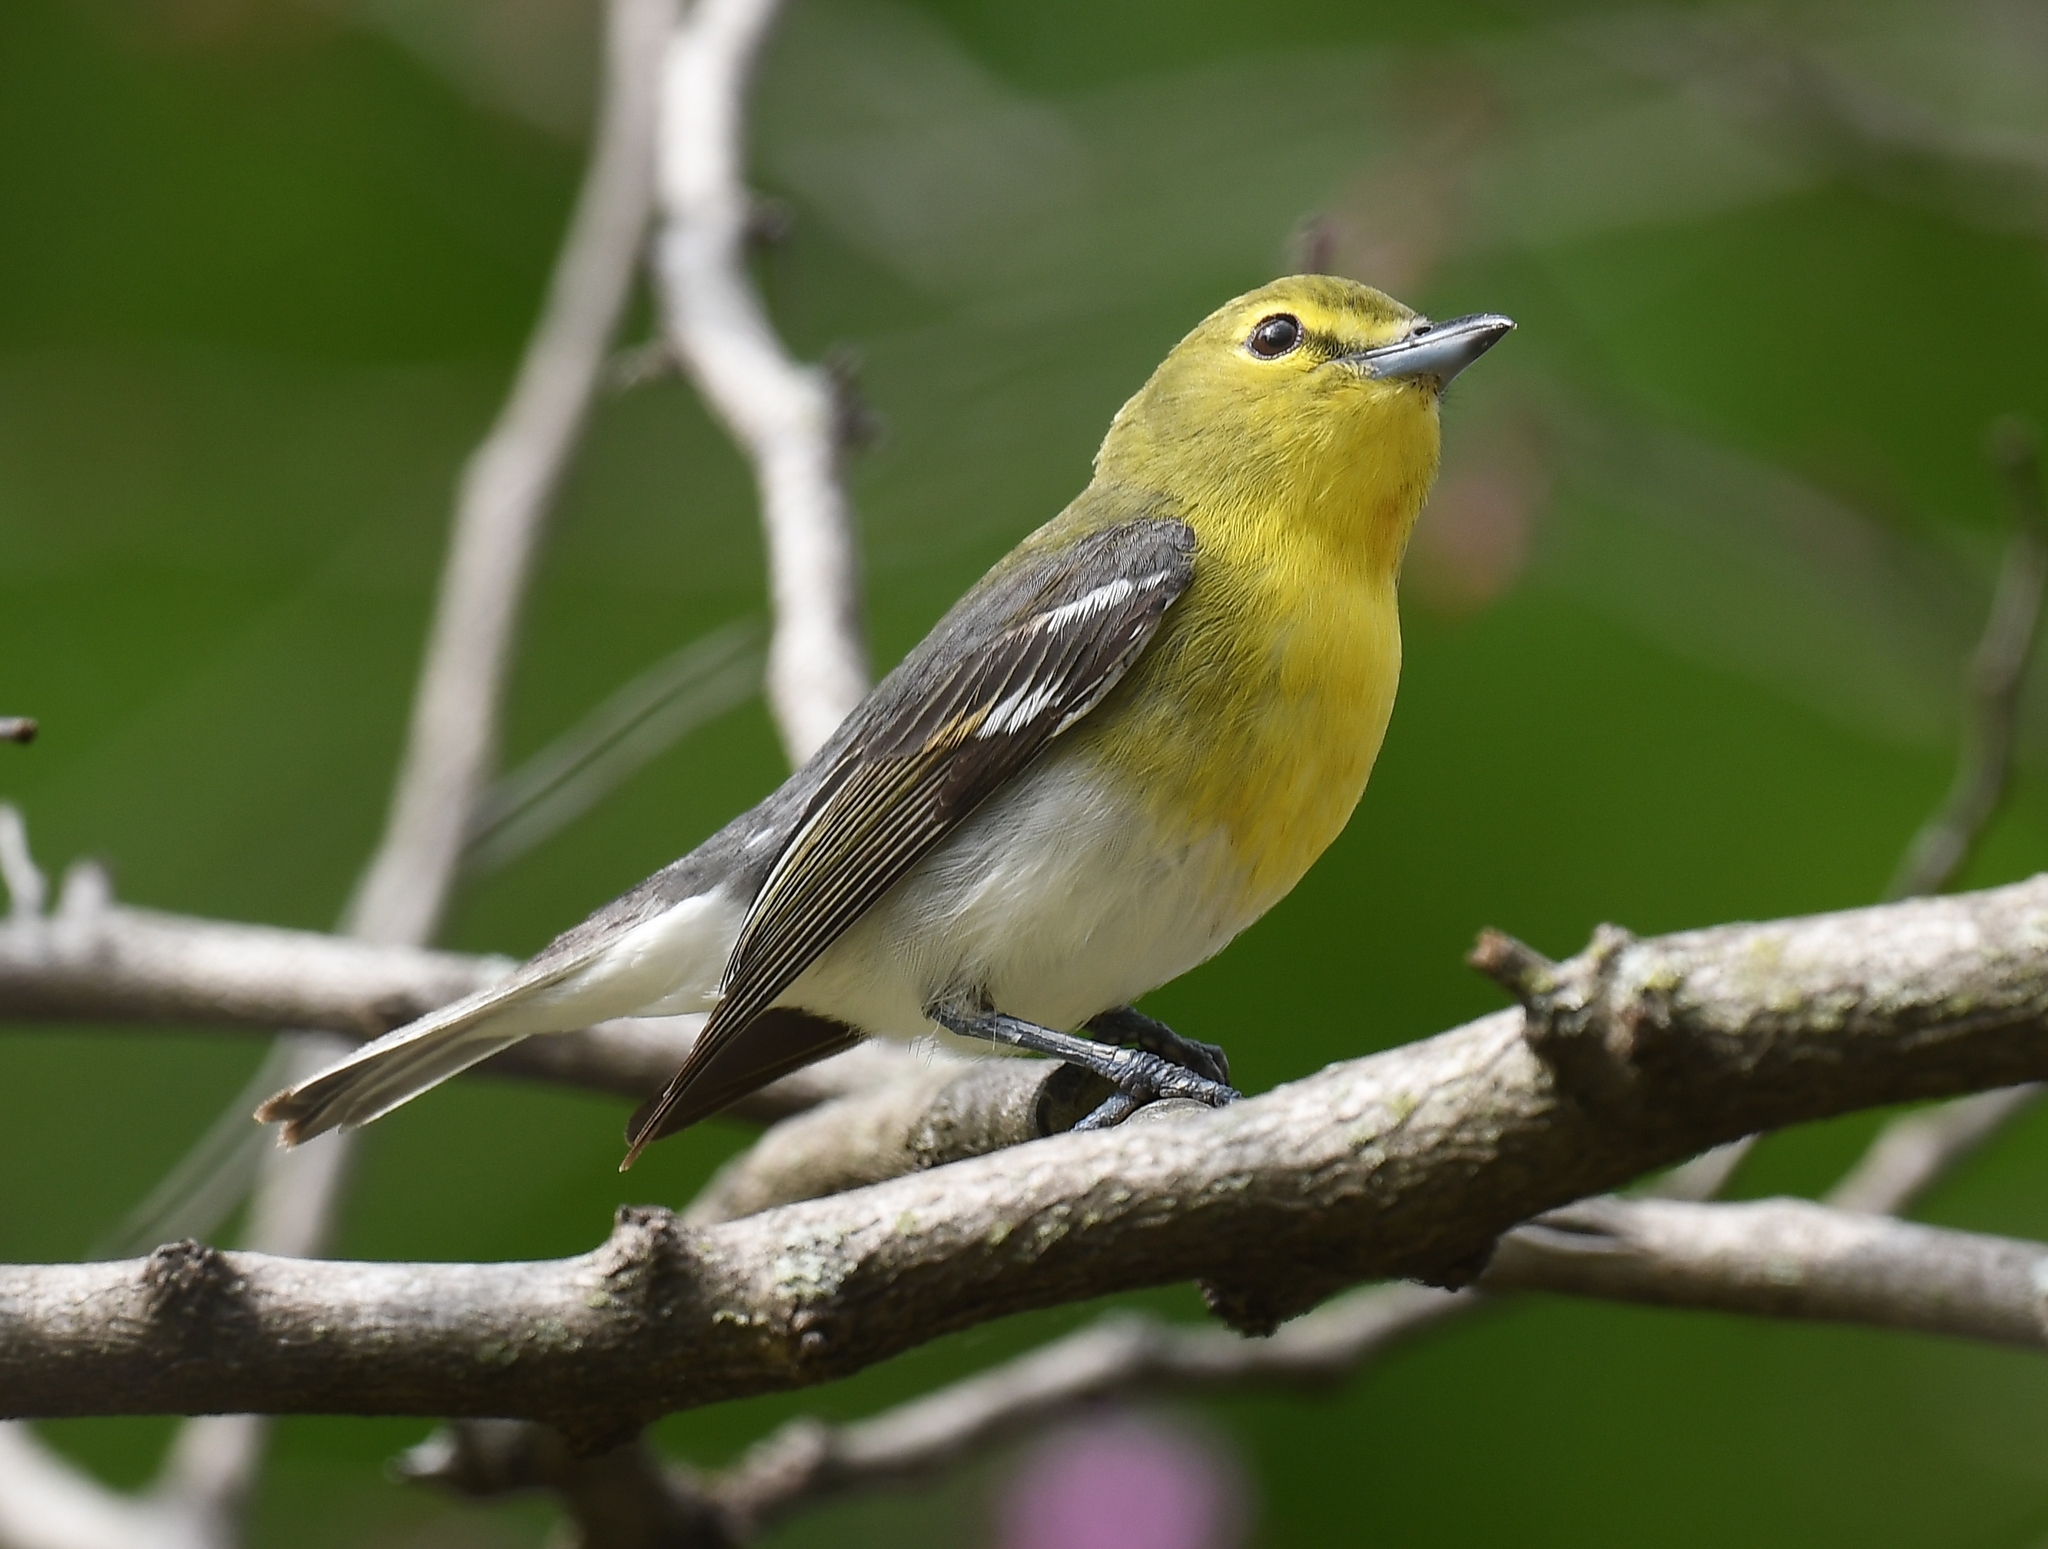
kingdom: Animalia
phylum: Chordata
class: Aves
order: Passeriformes
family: Vireonidae
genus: Vireo
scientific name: Vireo flavifrons
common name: Yellow-throated vireo
